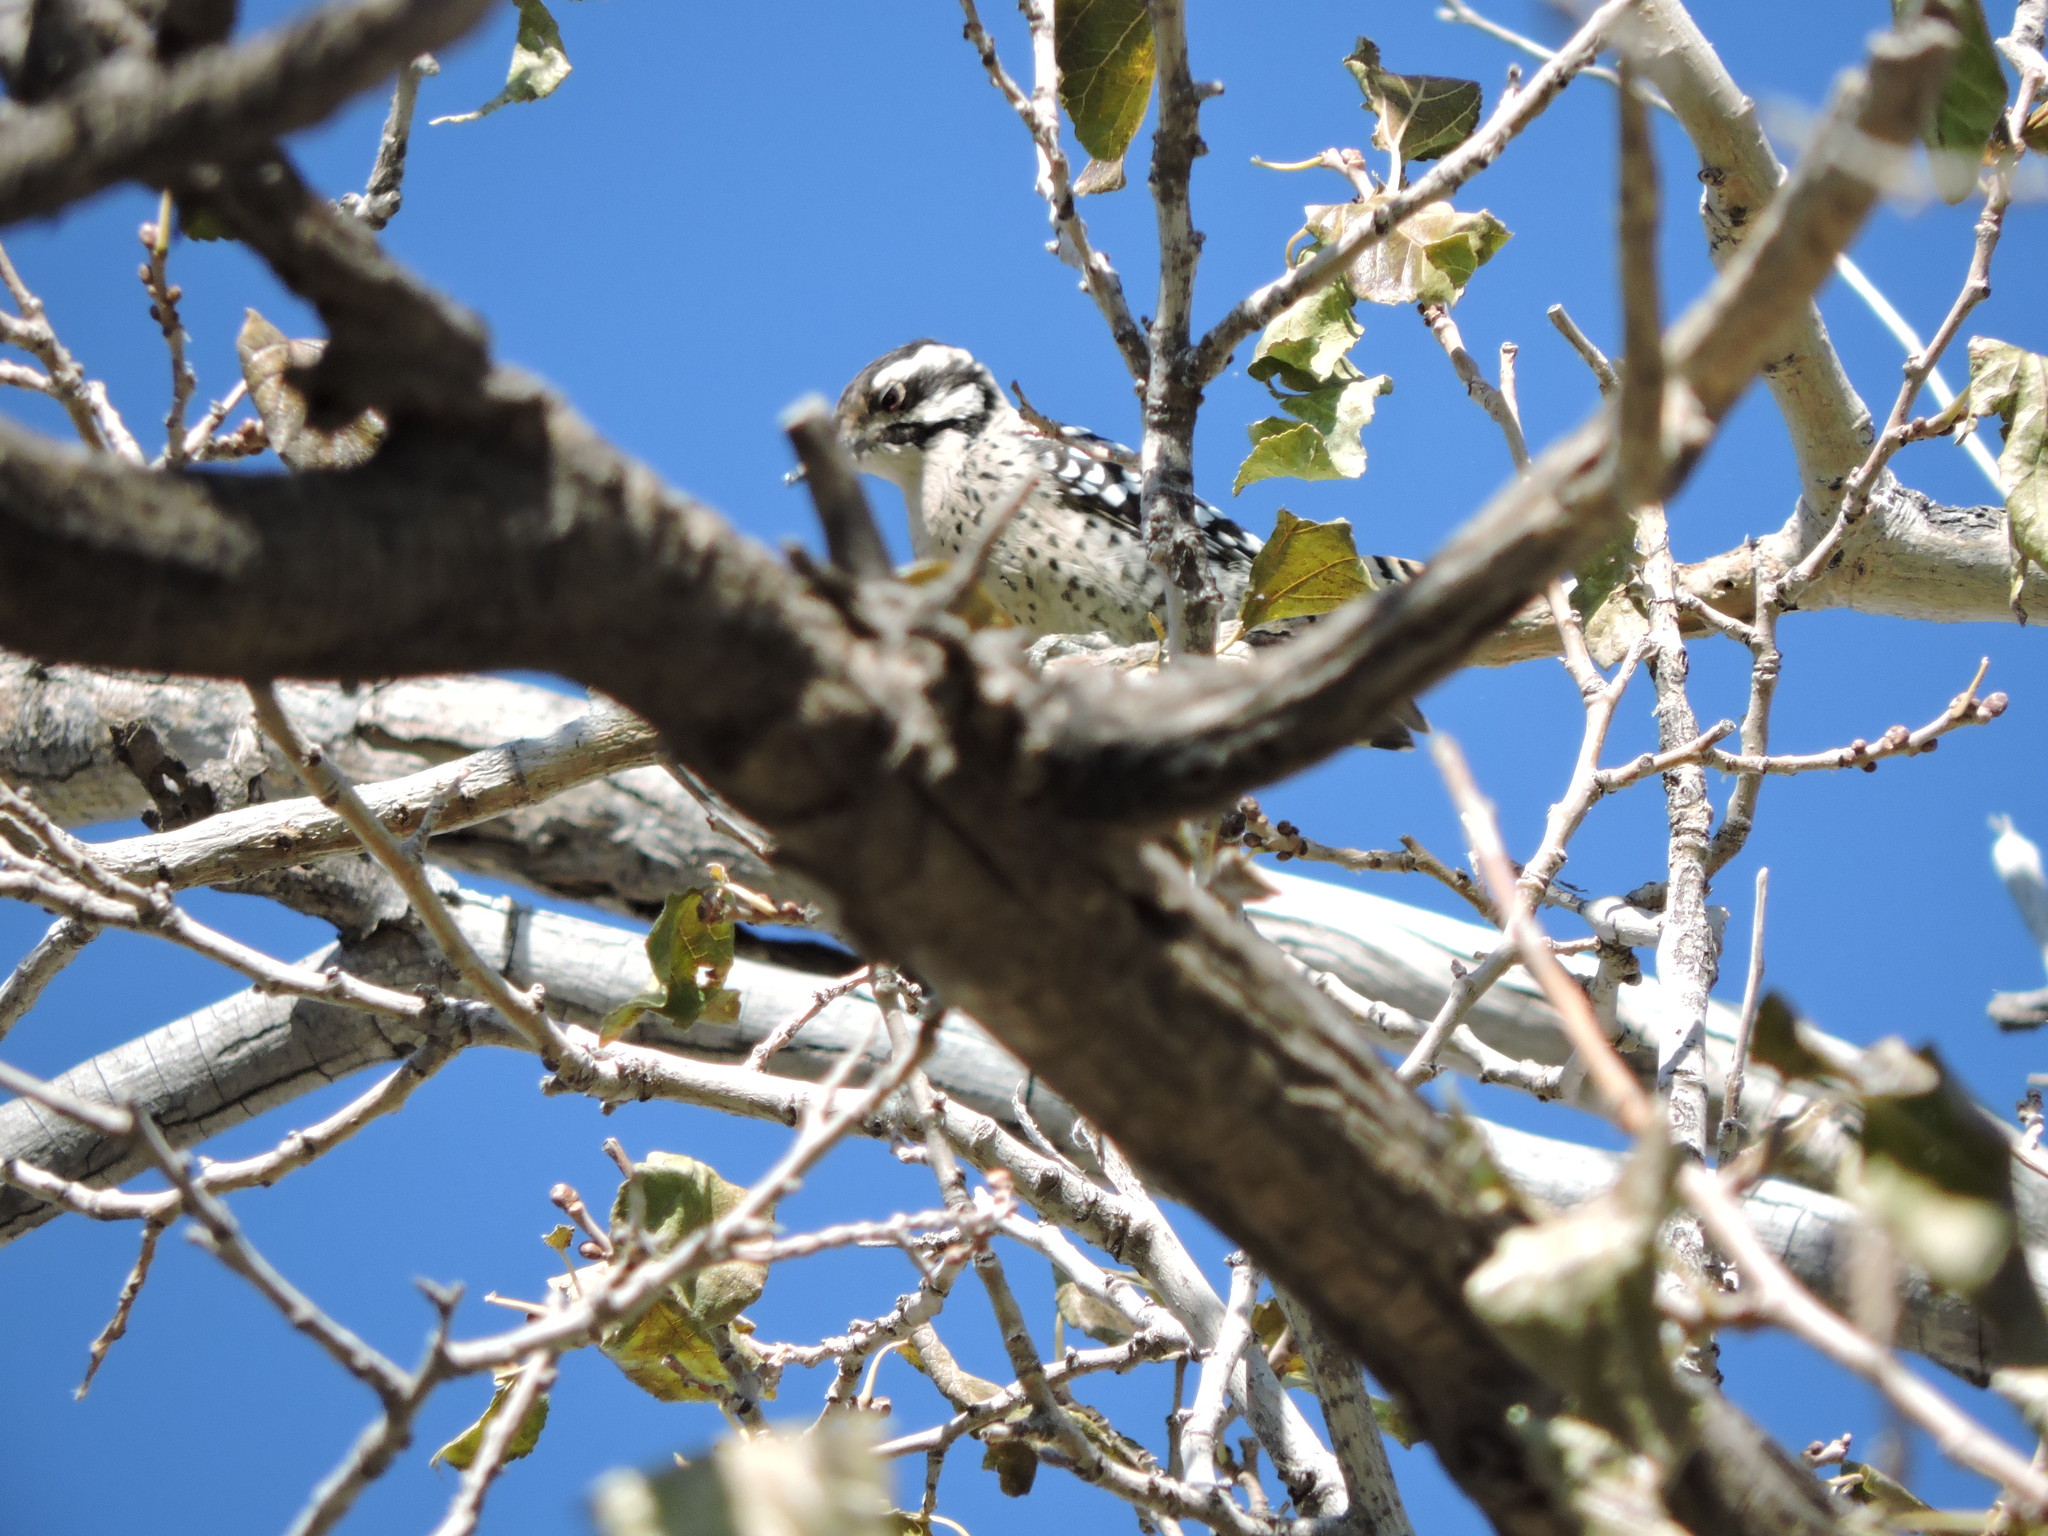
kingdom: Animalia
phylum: Chordata
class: Aves
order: Piciformes
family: Picidae
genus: Dryobates
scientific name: Dryobates scalaris
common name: Ladder-backed woodpecker
